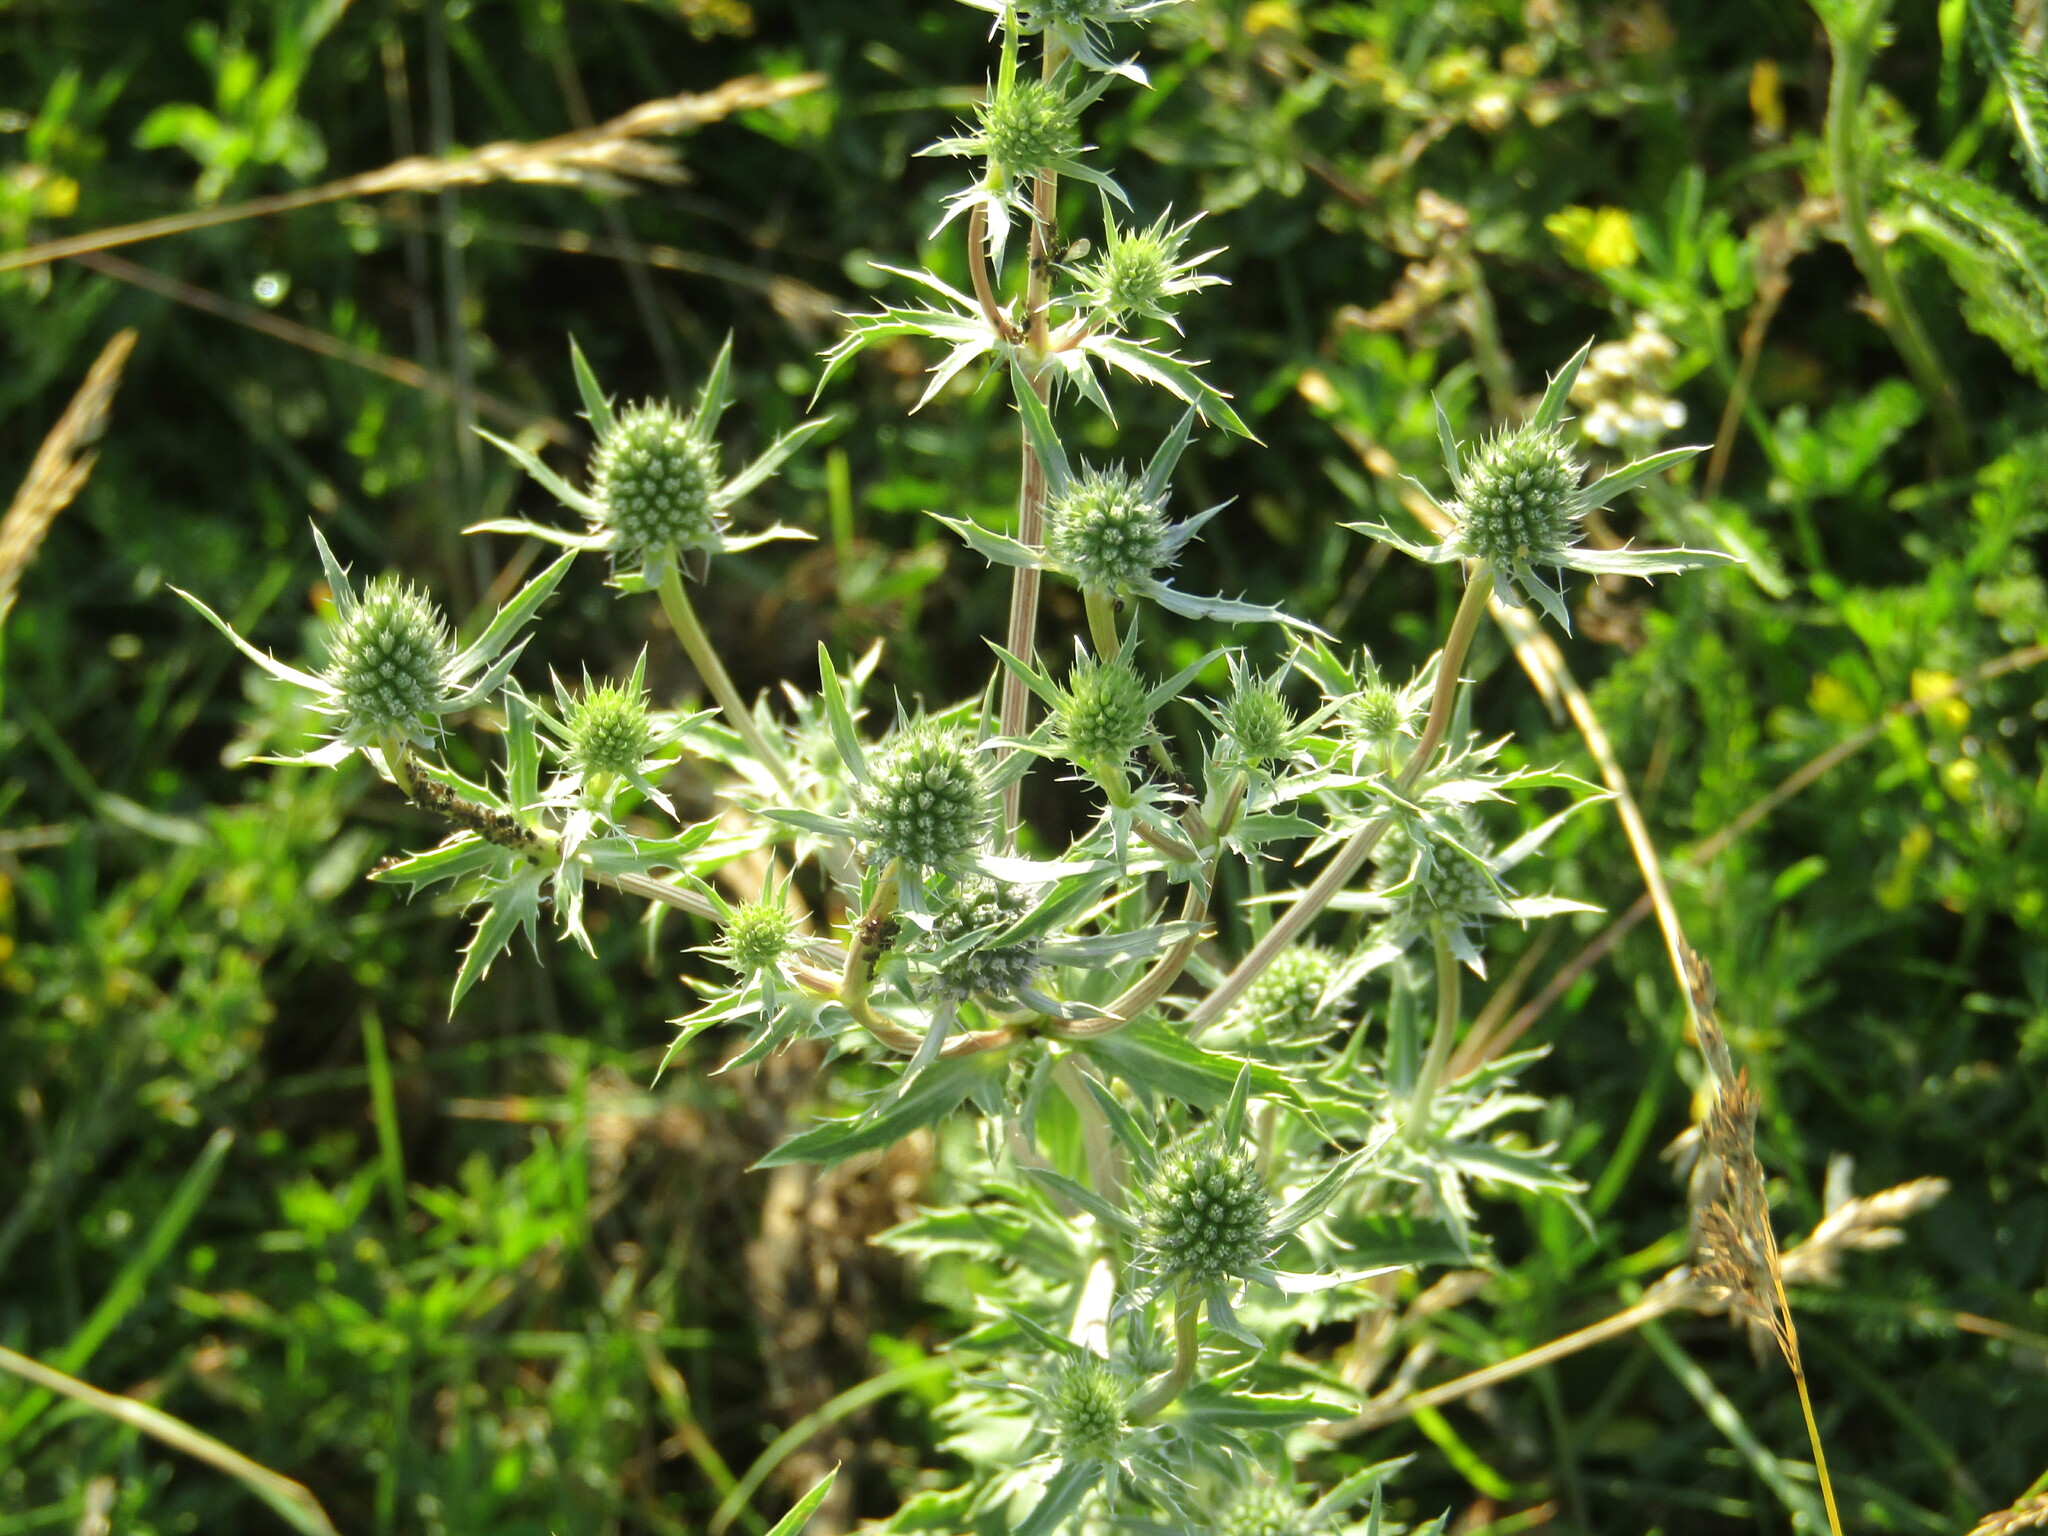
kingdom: Plantae
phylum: Tracheophyta
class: Magnoliopsida
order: Apiales
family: Apiaceae
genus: Eryngium
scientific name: Eryngium planum
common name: Blue eryngo
